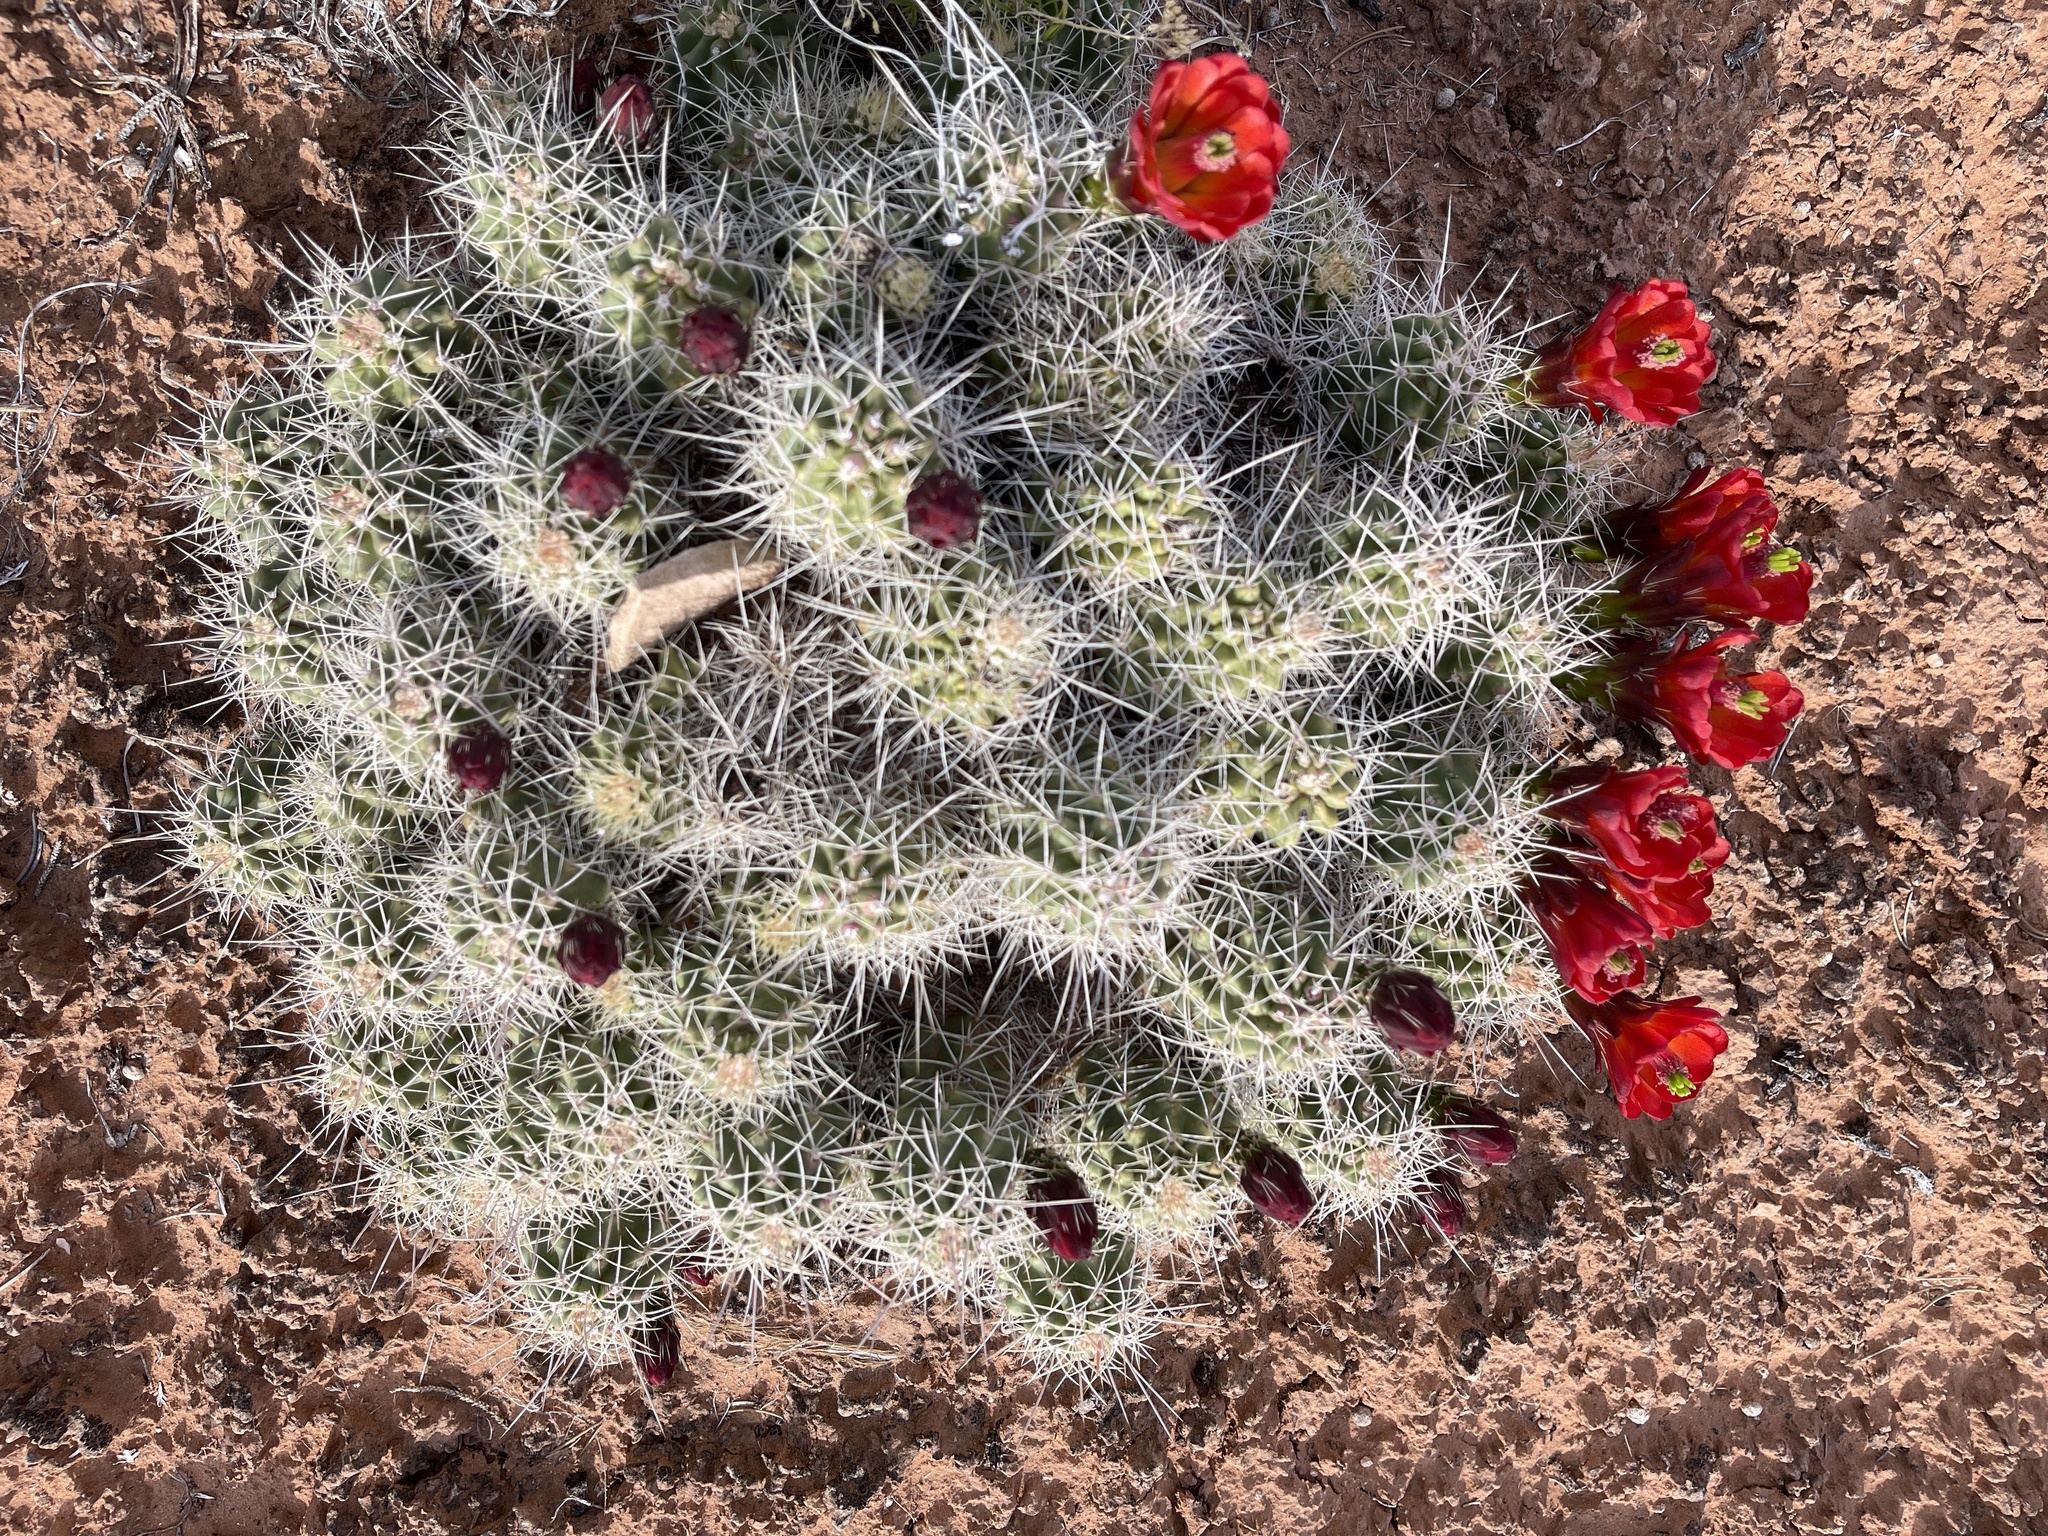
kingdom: Plantae
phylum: Tracheophyta
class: Magnoliopsida
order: Caryophyllales
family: Cactaceae
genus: Echinocereus
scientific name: Echinocereus triglochidiatus
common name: Claretcup hedgehog
